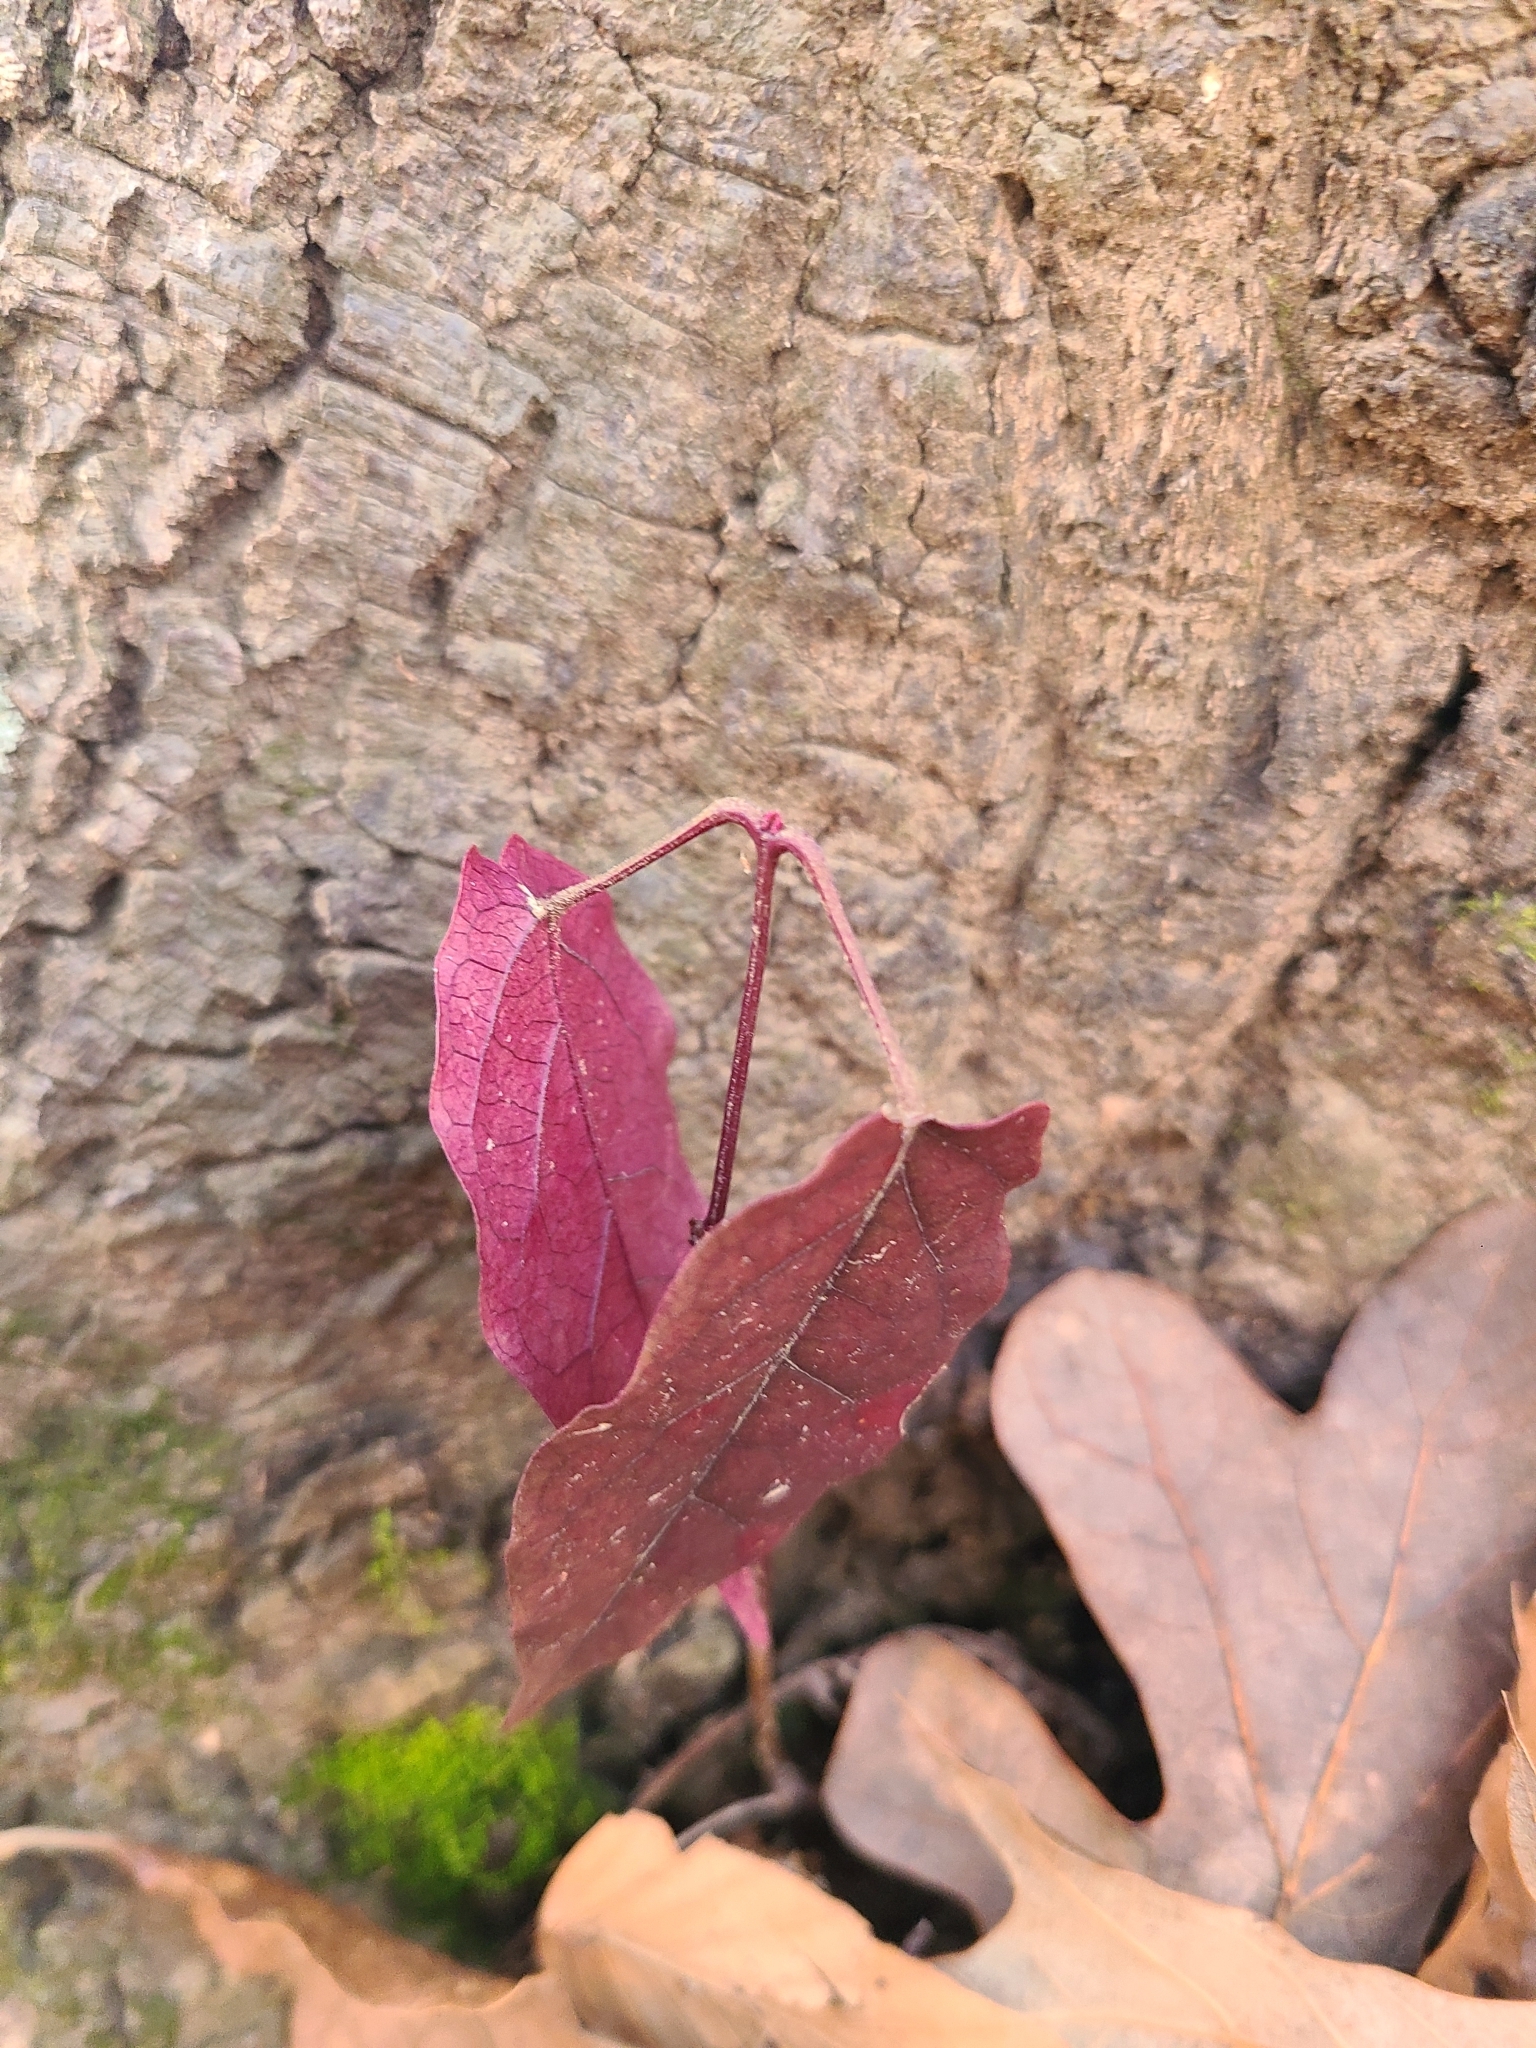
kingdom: Plantae
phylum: Tracheophyta
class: Magnoliopsida
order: Lamiales
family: Bignoniaceae
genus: Bignonia
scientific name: Bignonia capreolata
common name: Crossvine
